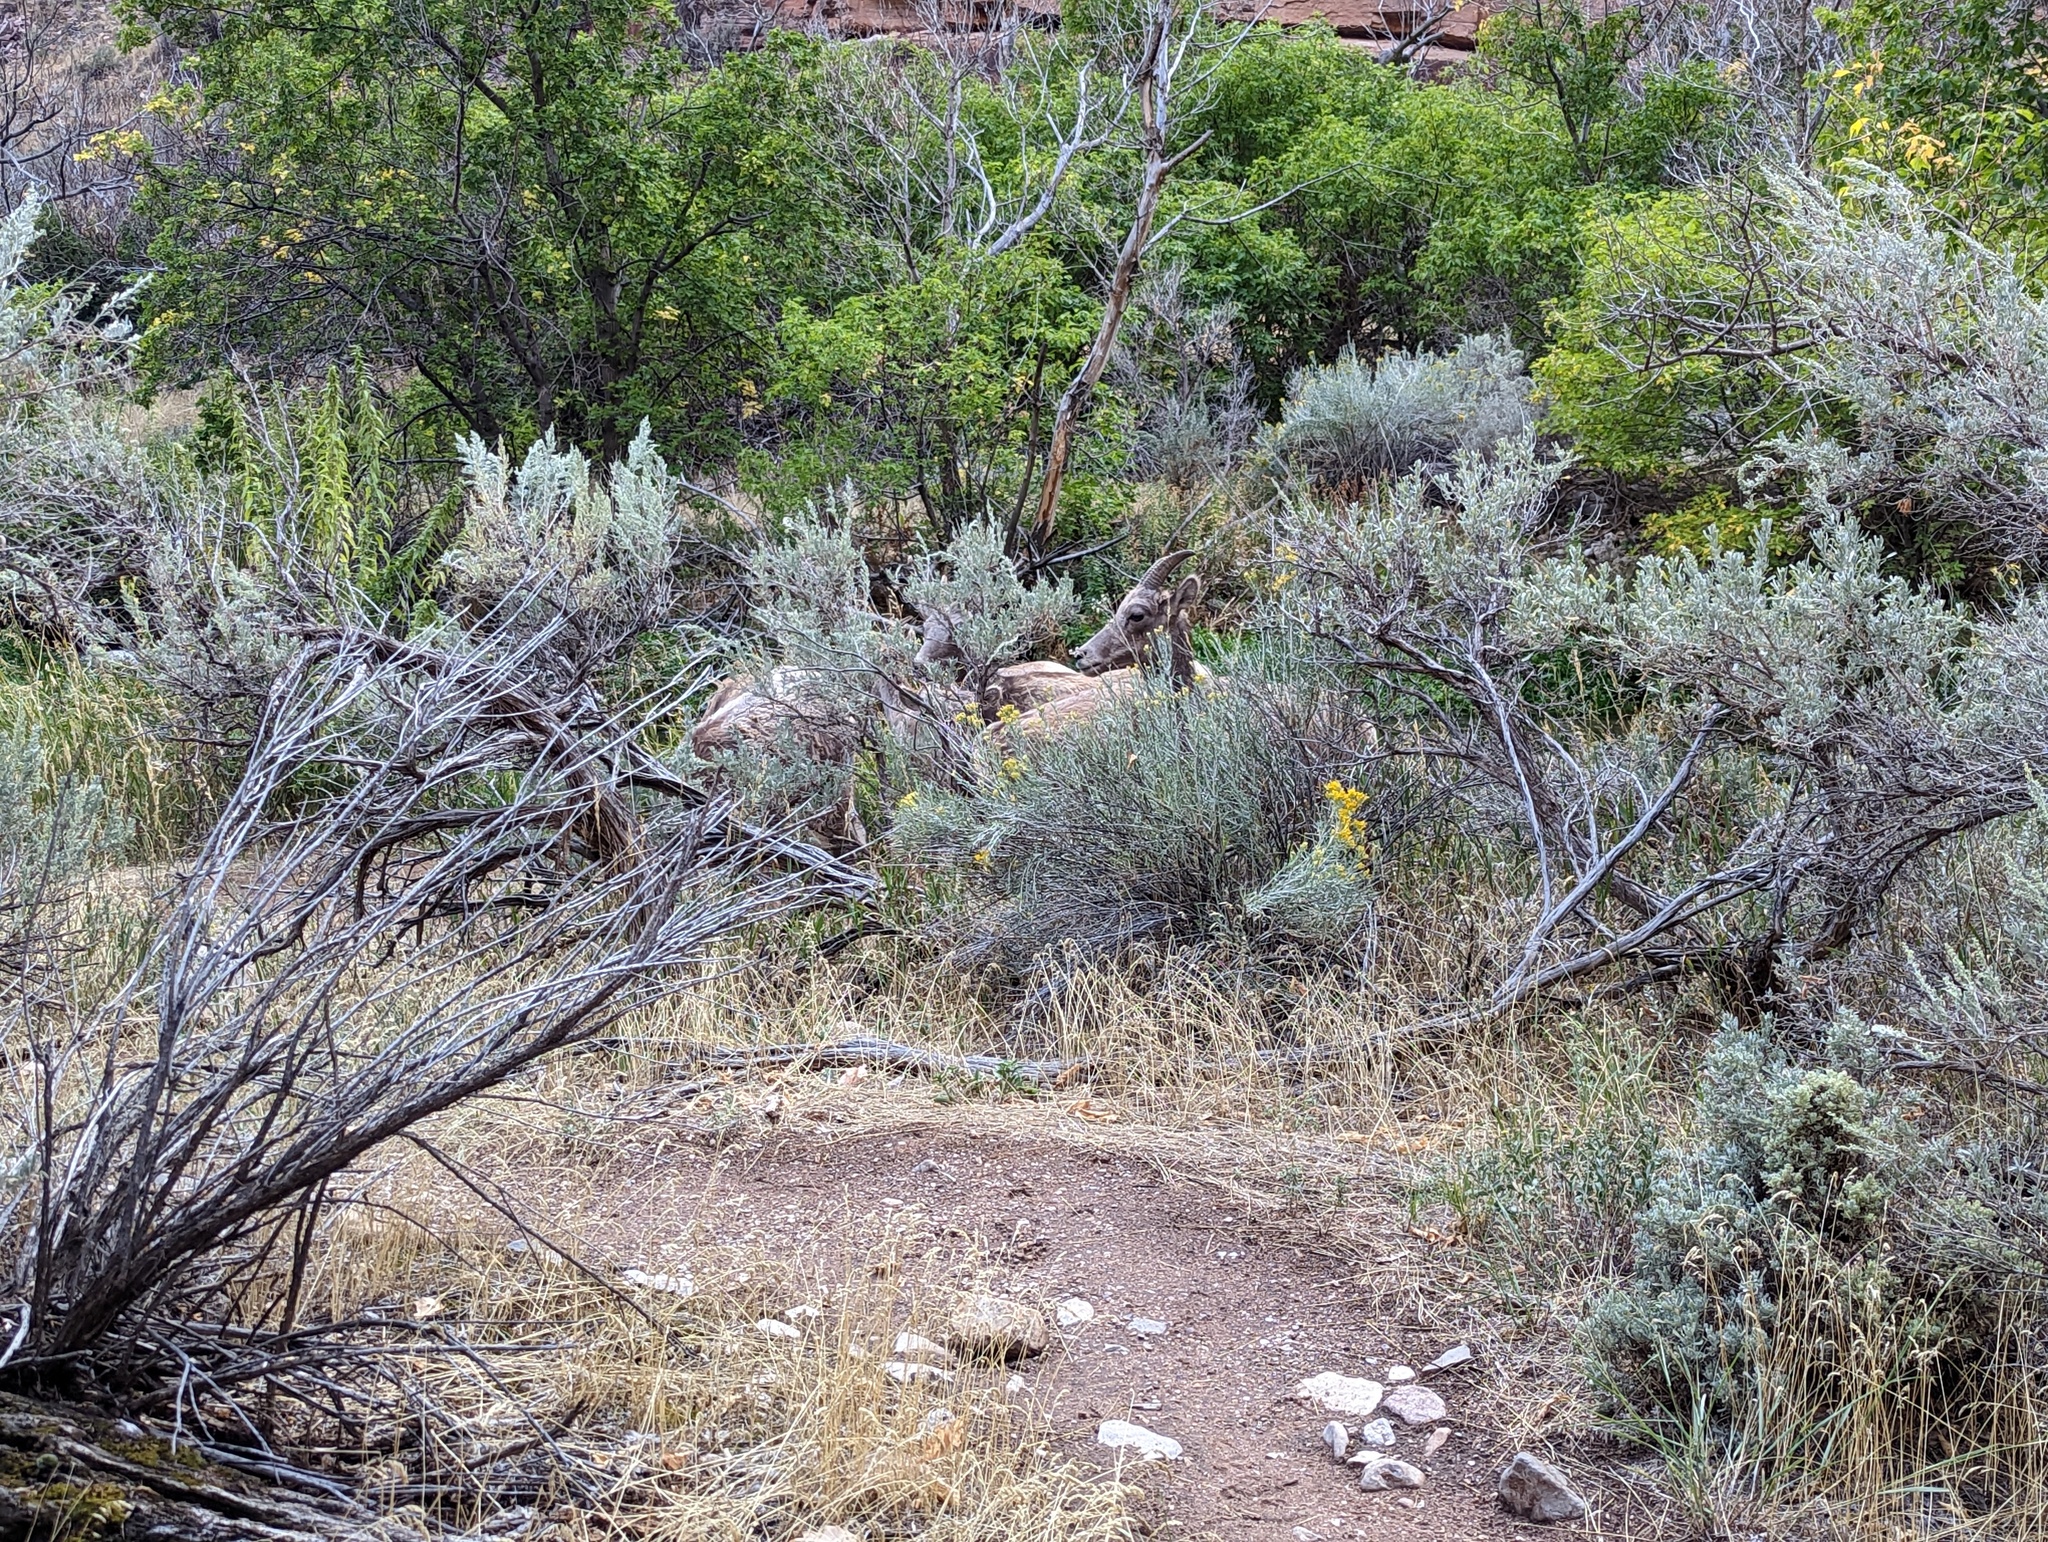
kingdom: Animalia
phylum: Chordata
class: Mammalia
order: Artiodactyla
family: Bovidae
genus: Ovis
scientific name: Ovis canadensis
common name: Bighorn sheep
